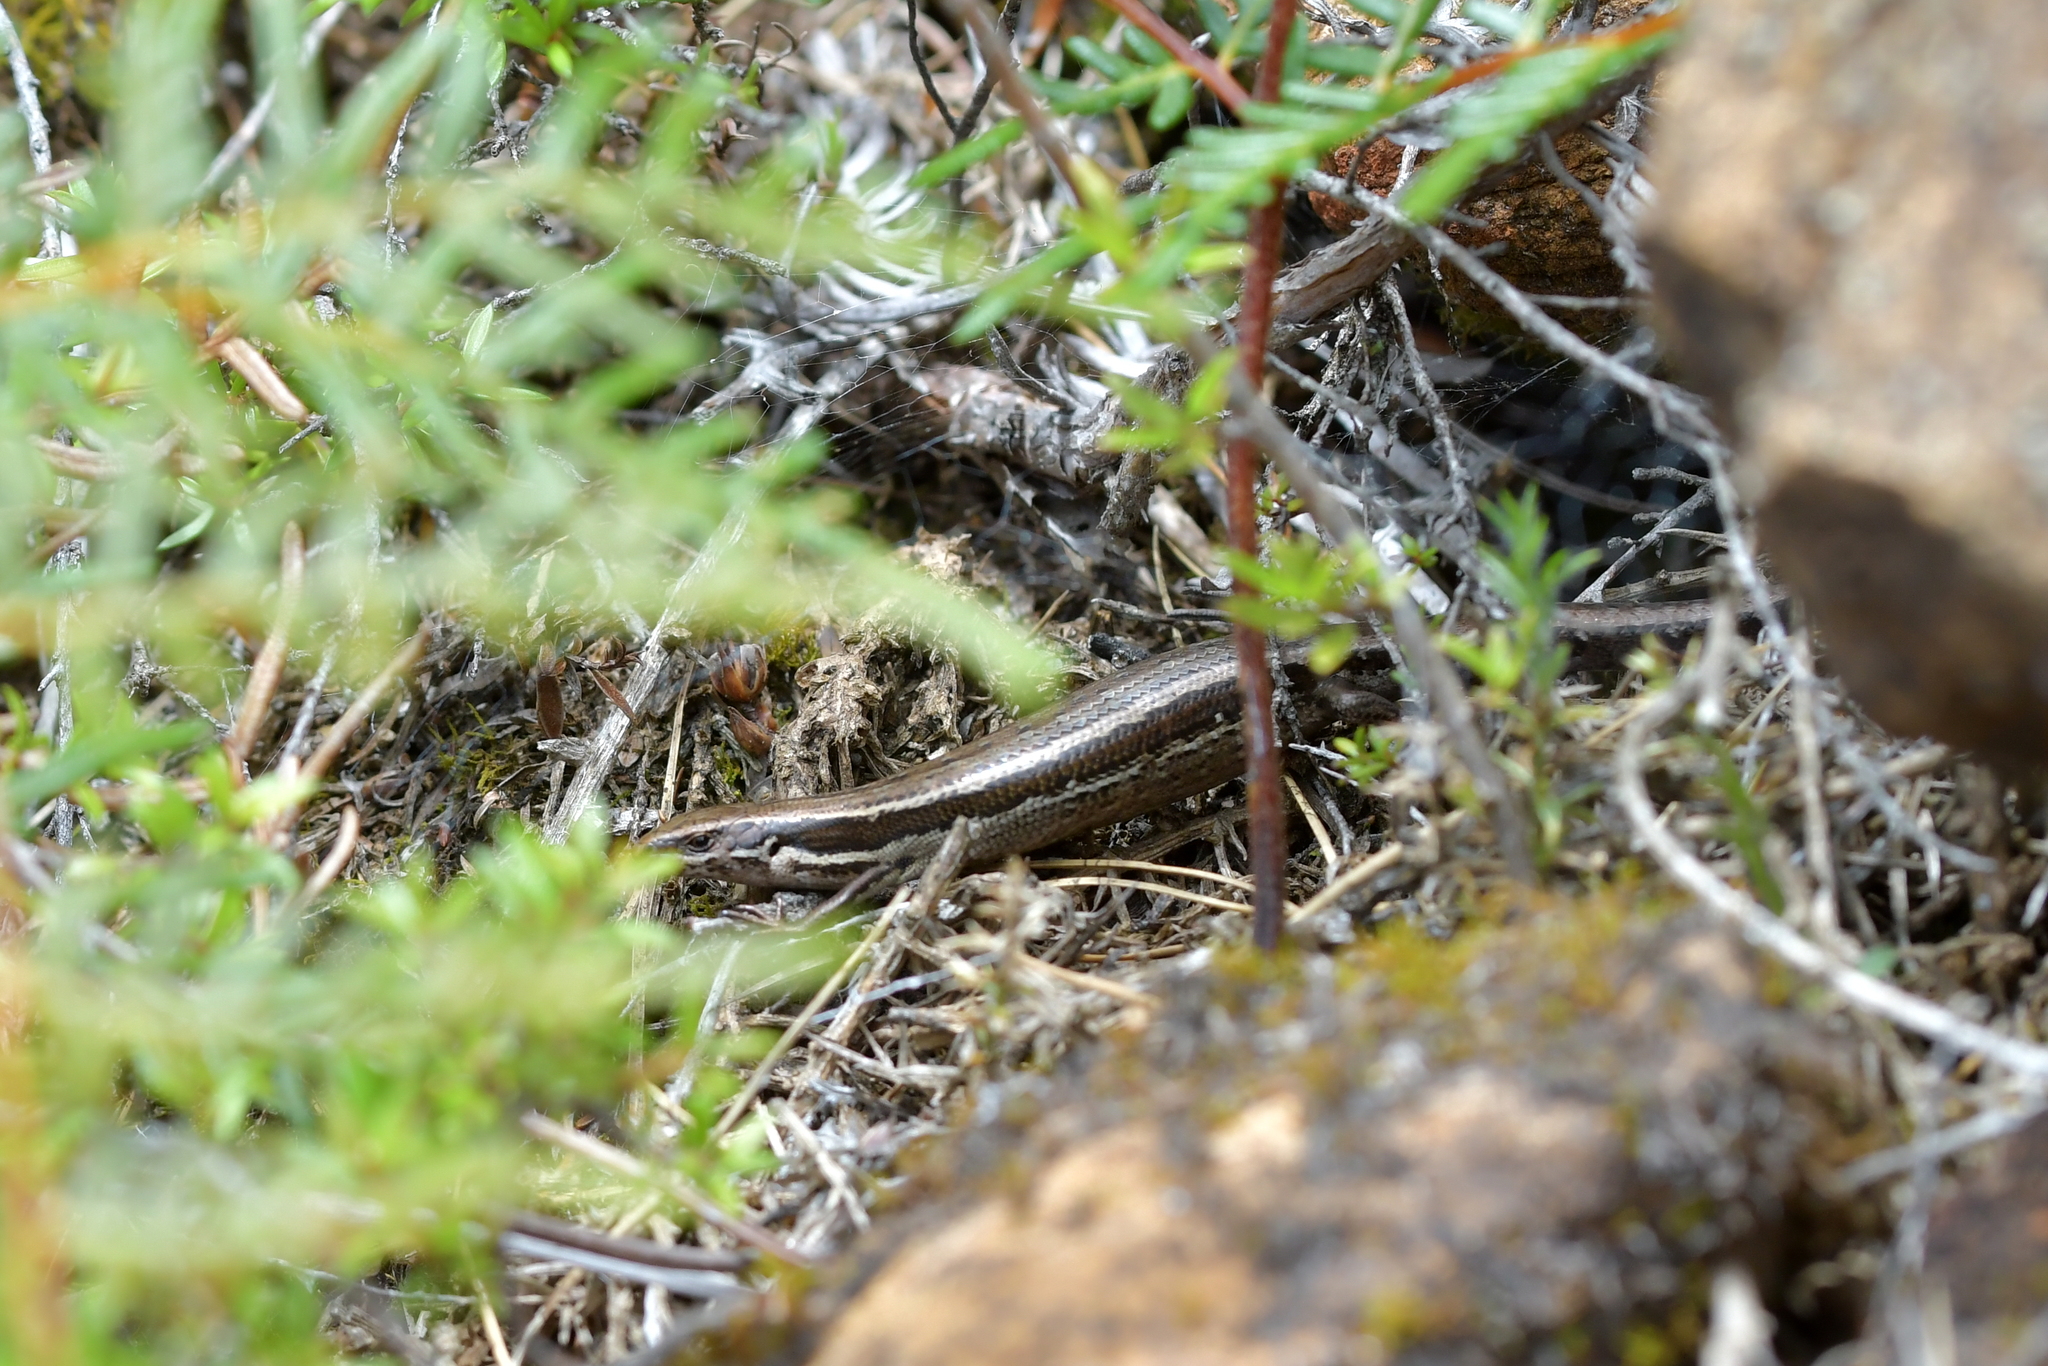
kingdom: Animalia
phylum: Chordata
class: Squamata
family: Scincidae
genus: Oligosoma
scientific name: Oligosoma polychroma
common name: Common new zealand skink
